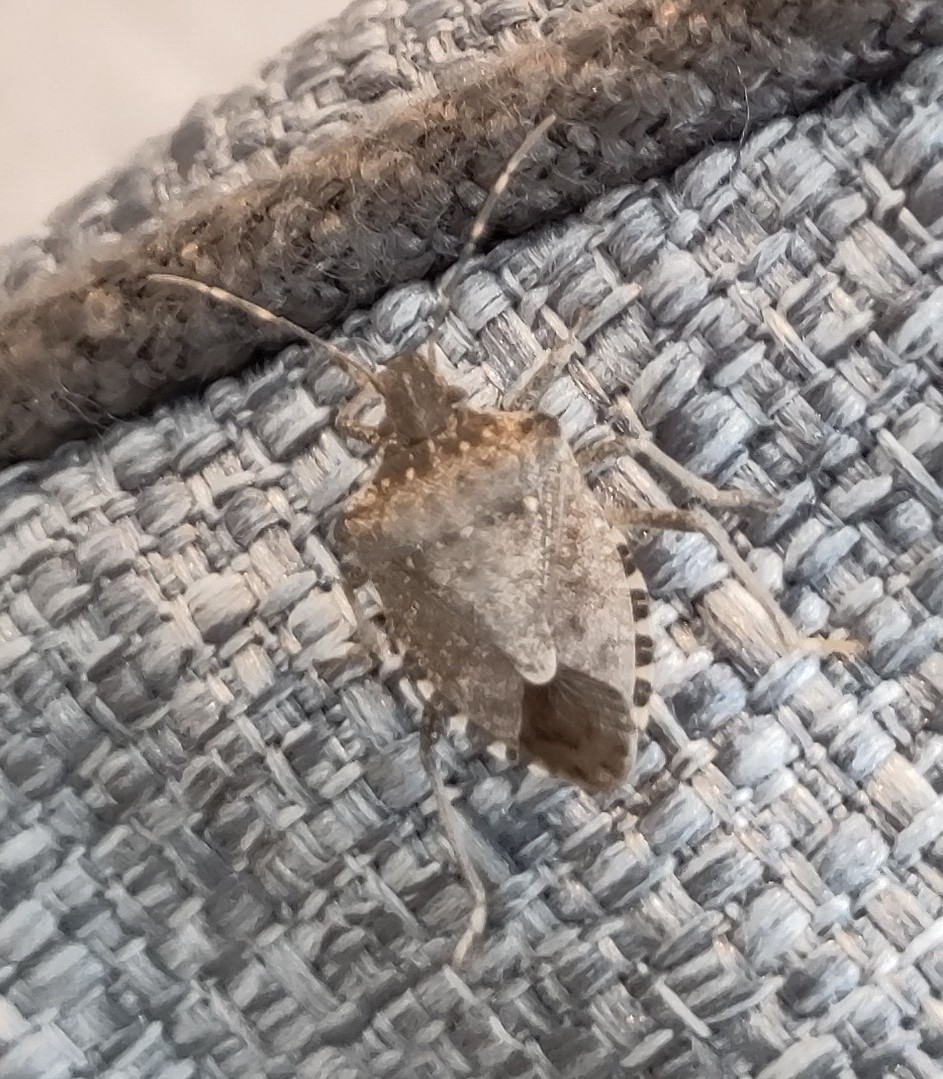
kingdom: Animalia
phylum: Arthropoda
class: Insecta
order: Hemiptera
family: Pentatomidae
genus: Halyomorpha
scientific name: Halyomorpha halys
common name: Brown marmorated stink bug
